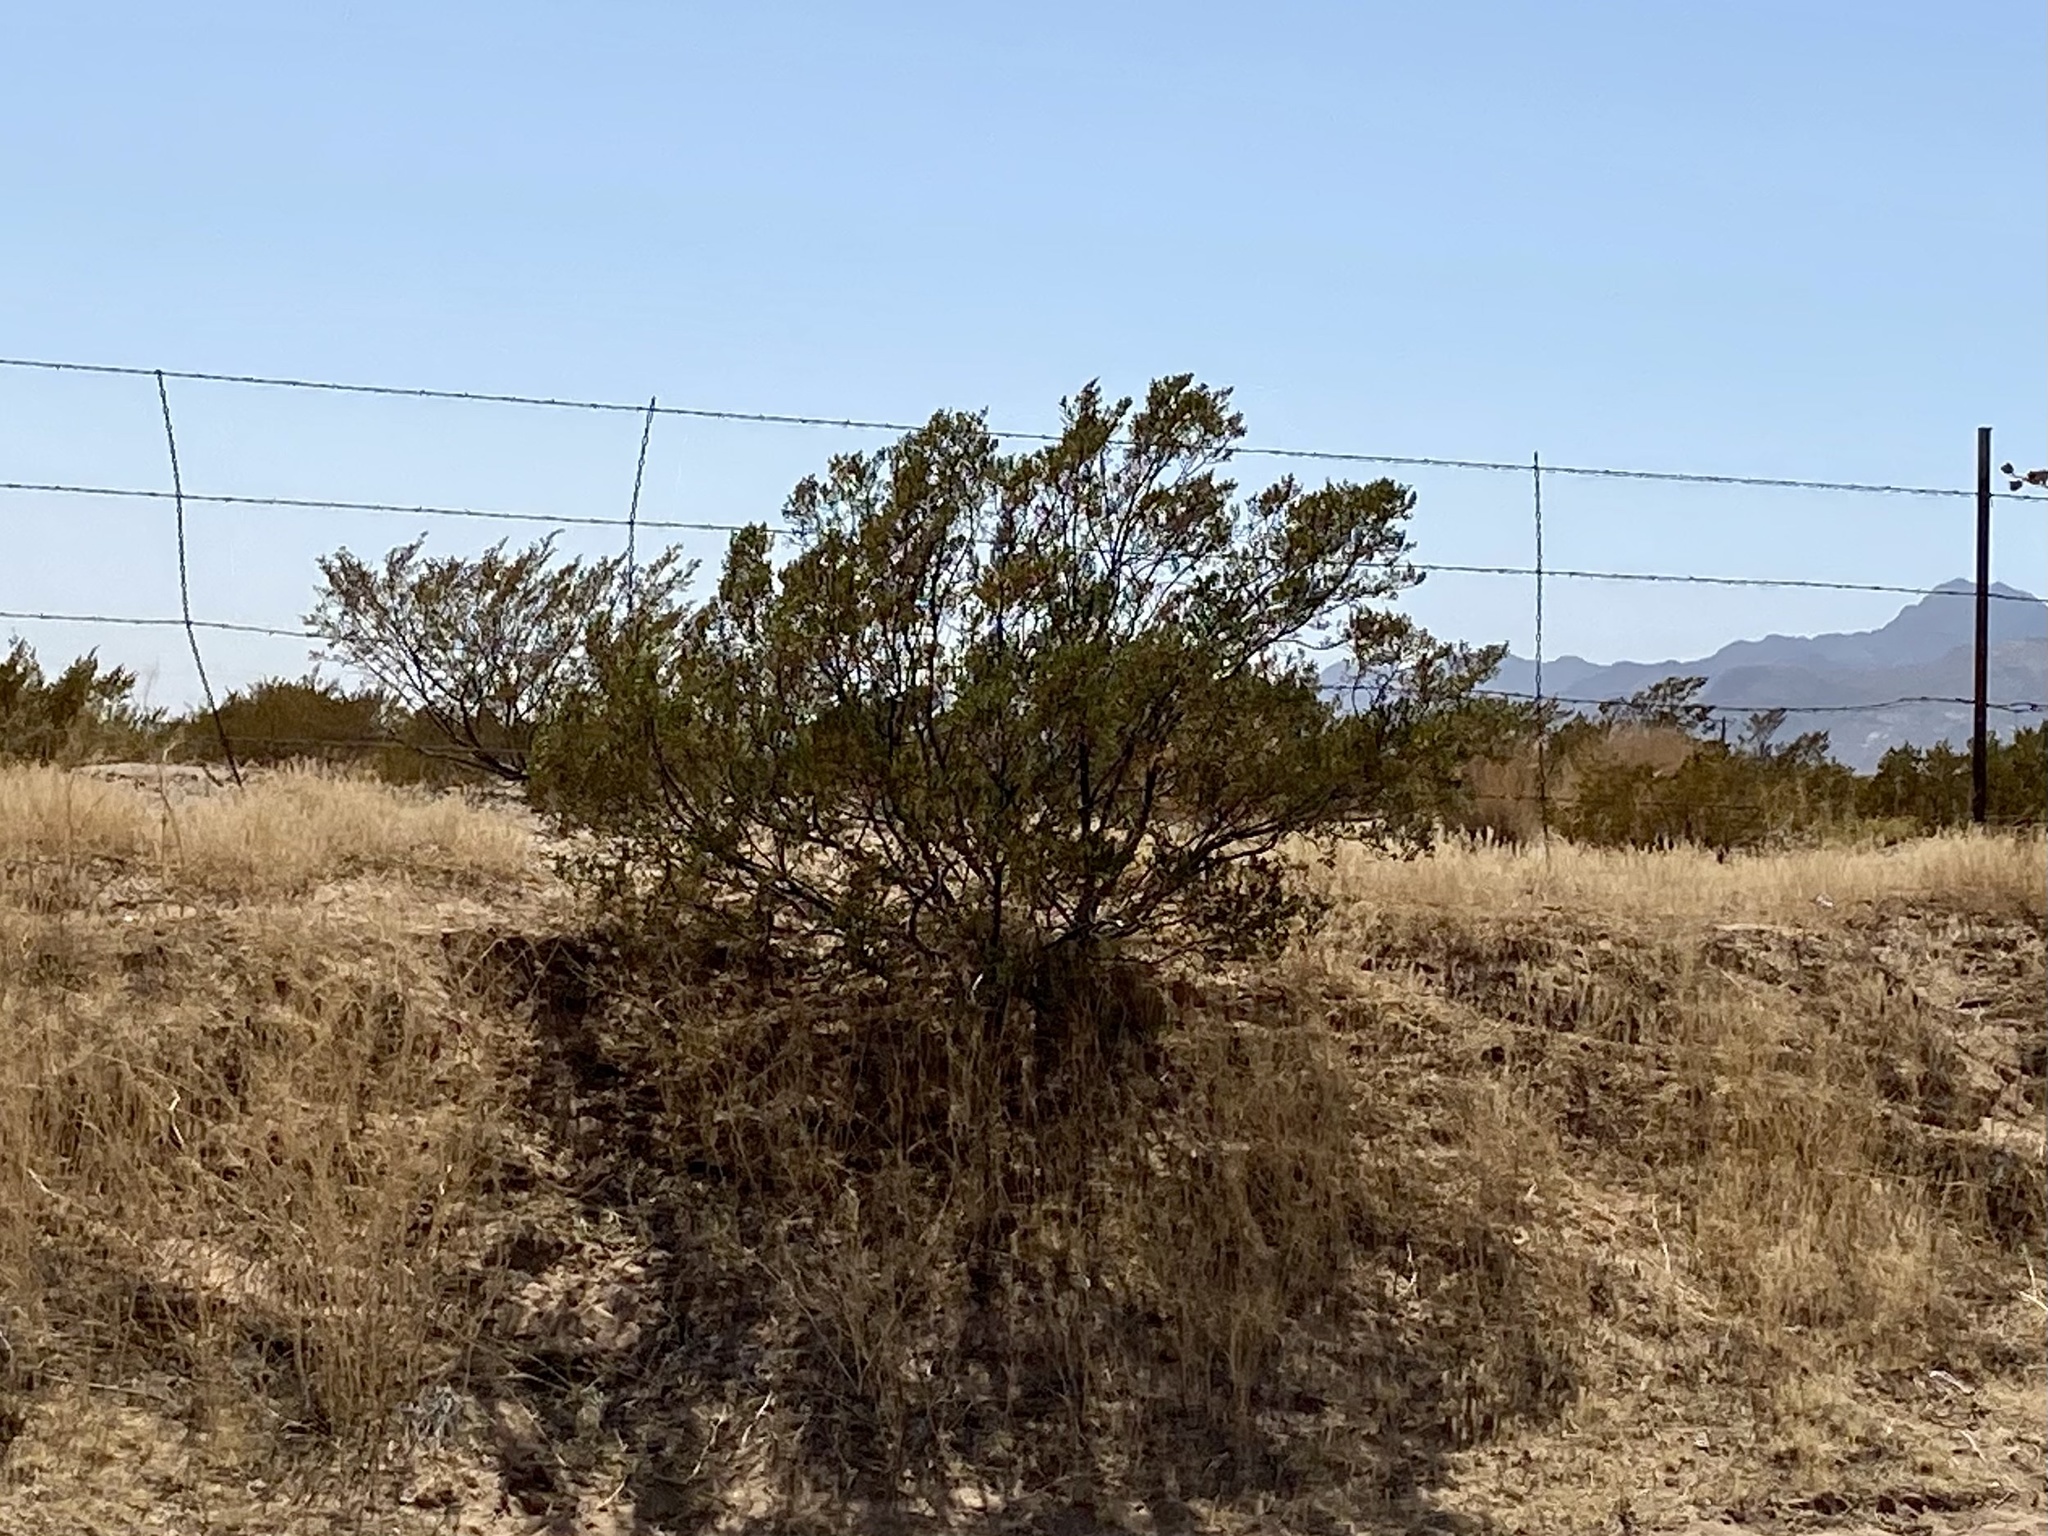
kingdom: Plantae
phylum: Tracheophyta
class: Magnoliopsida
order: Zygophyllales
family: Zygophyllaceae
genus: Larrea
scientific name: Larrea tridentata
